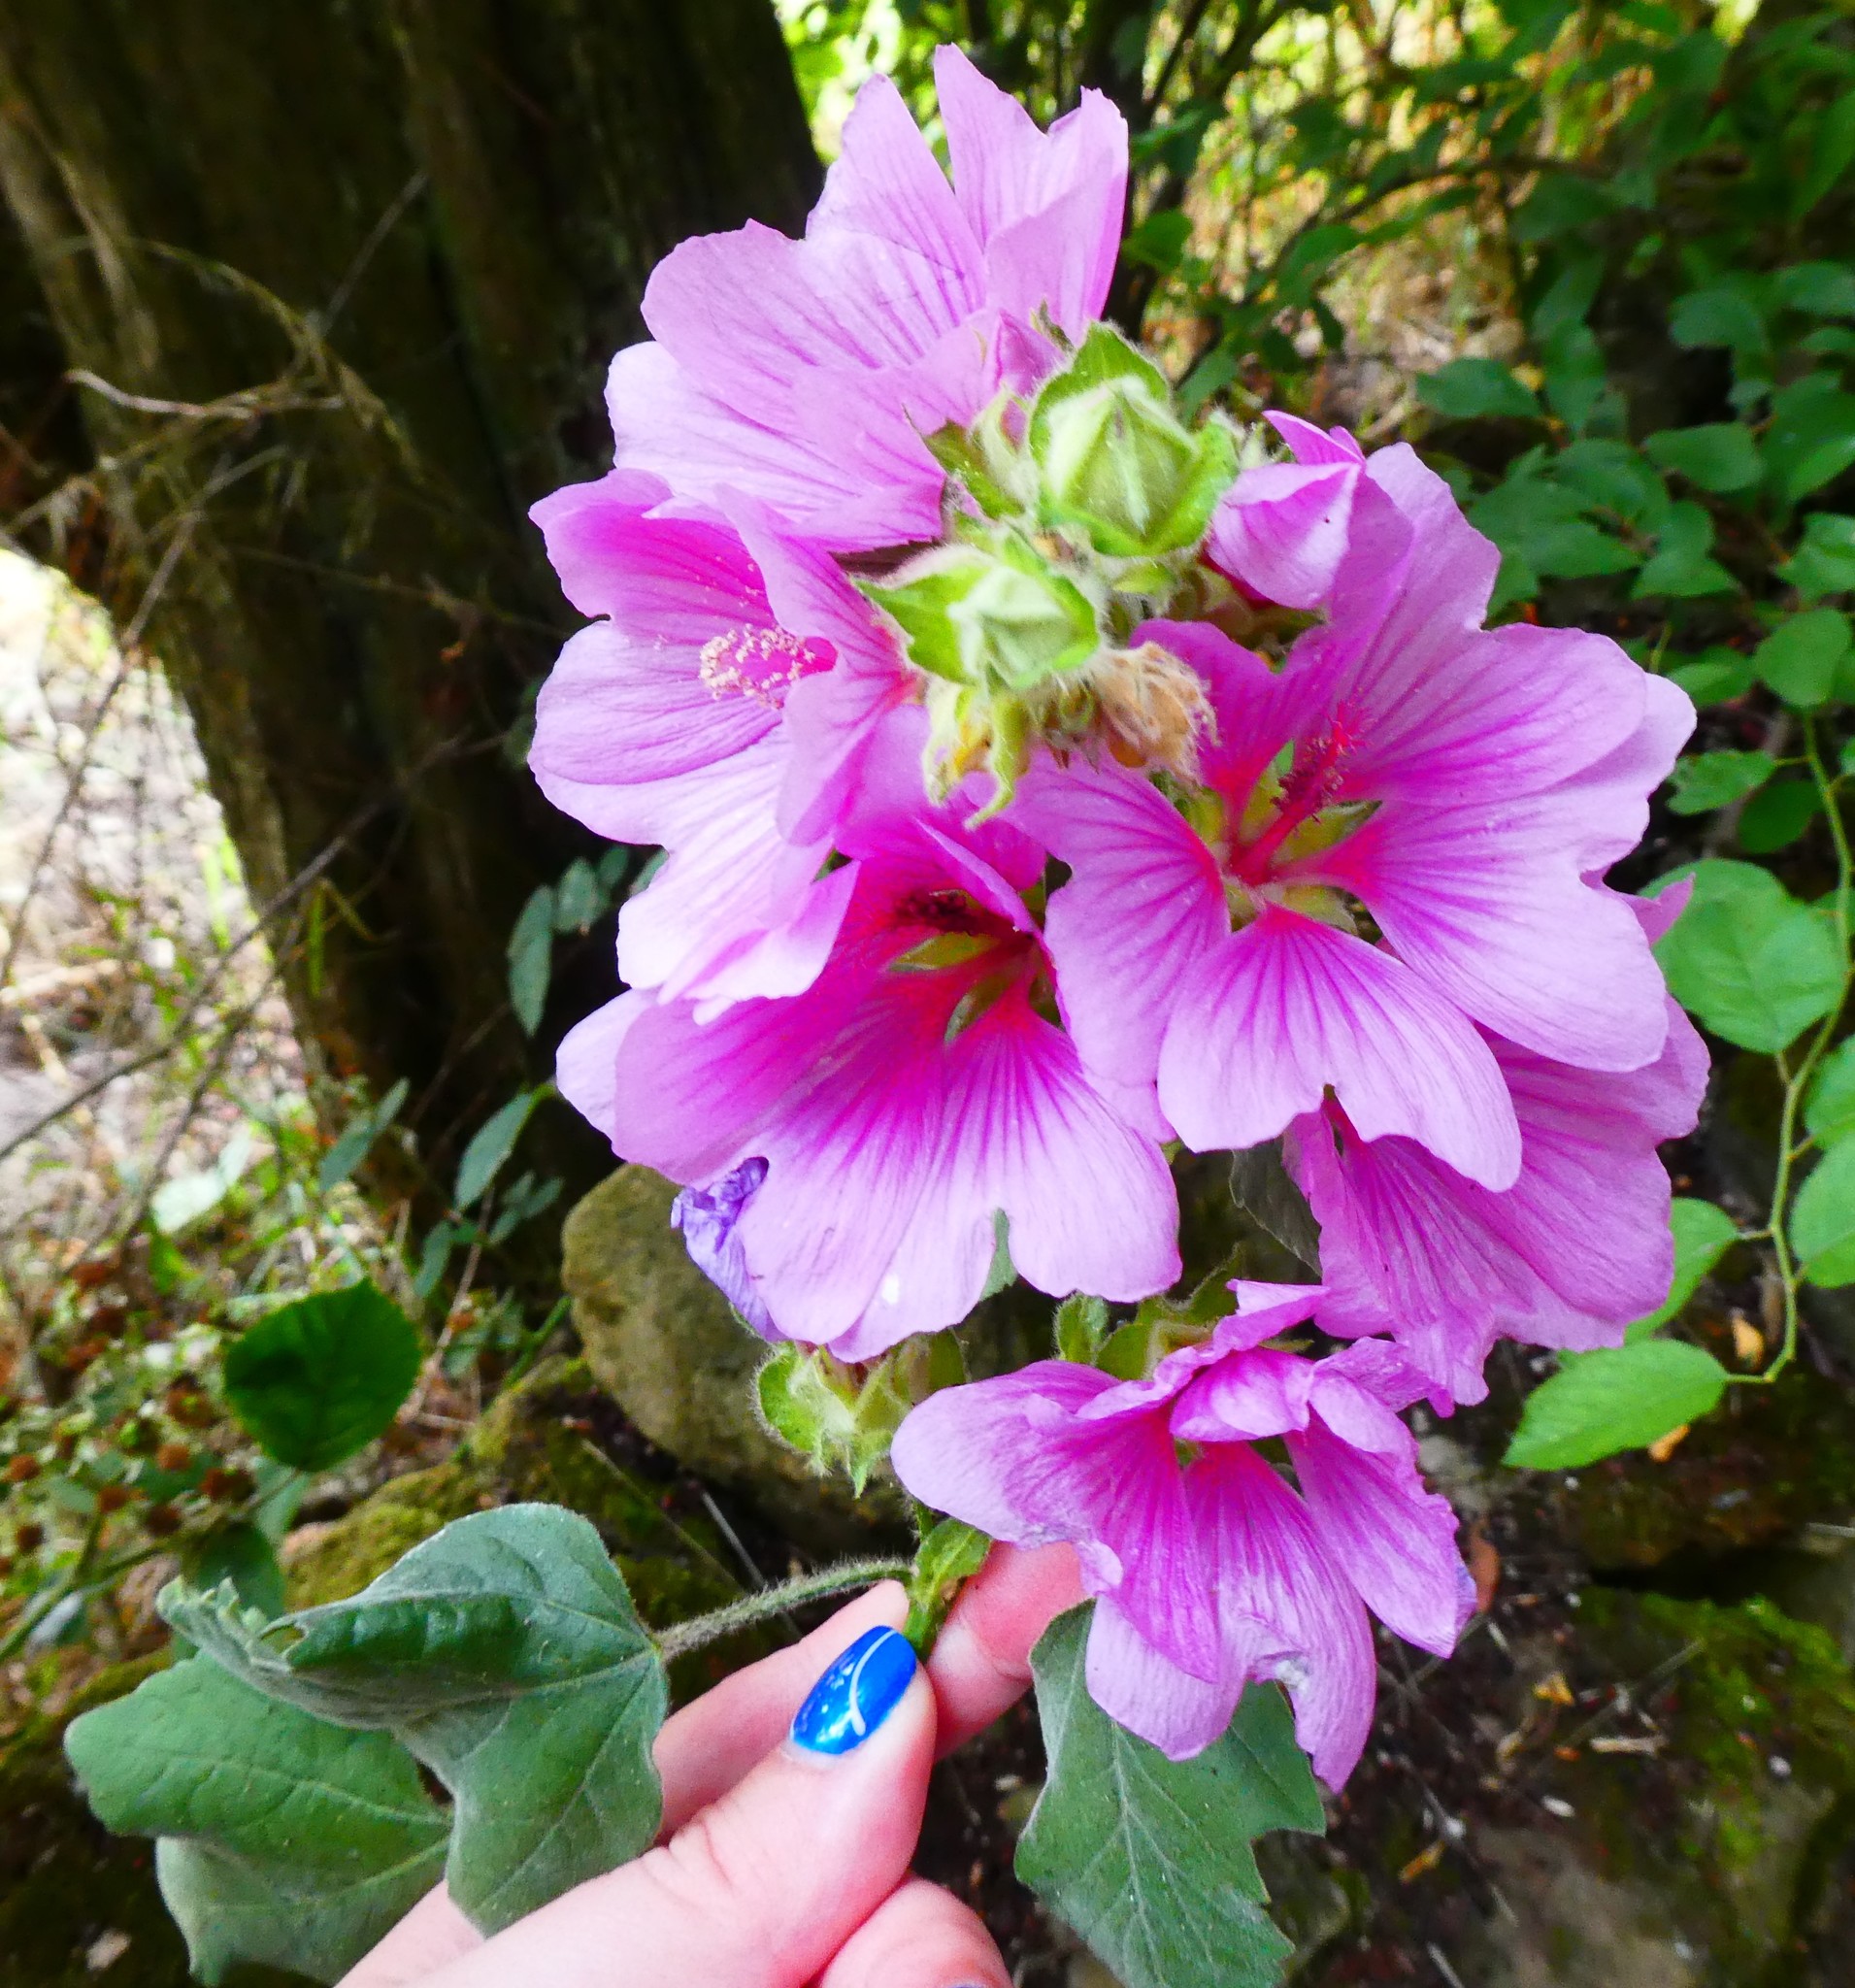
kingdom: Plantae
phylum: Tracheophyta
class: Magnoliopsida
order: Malvales
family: Malvaceae
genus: Malva
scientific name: Malva clementii
